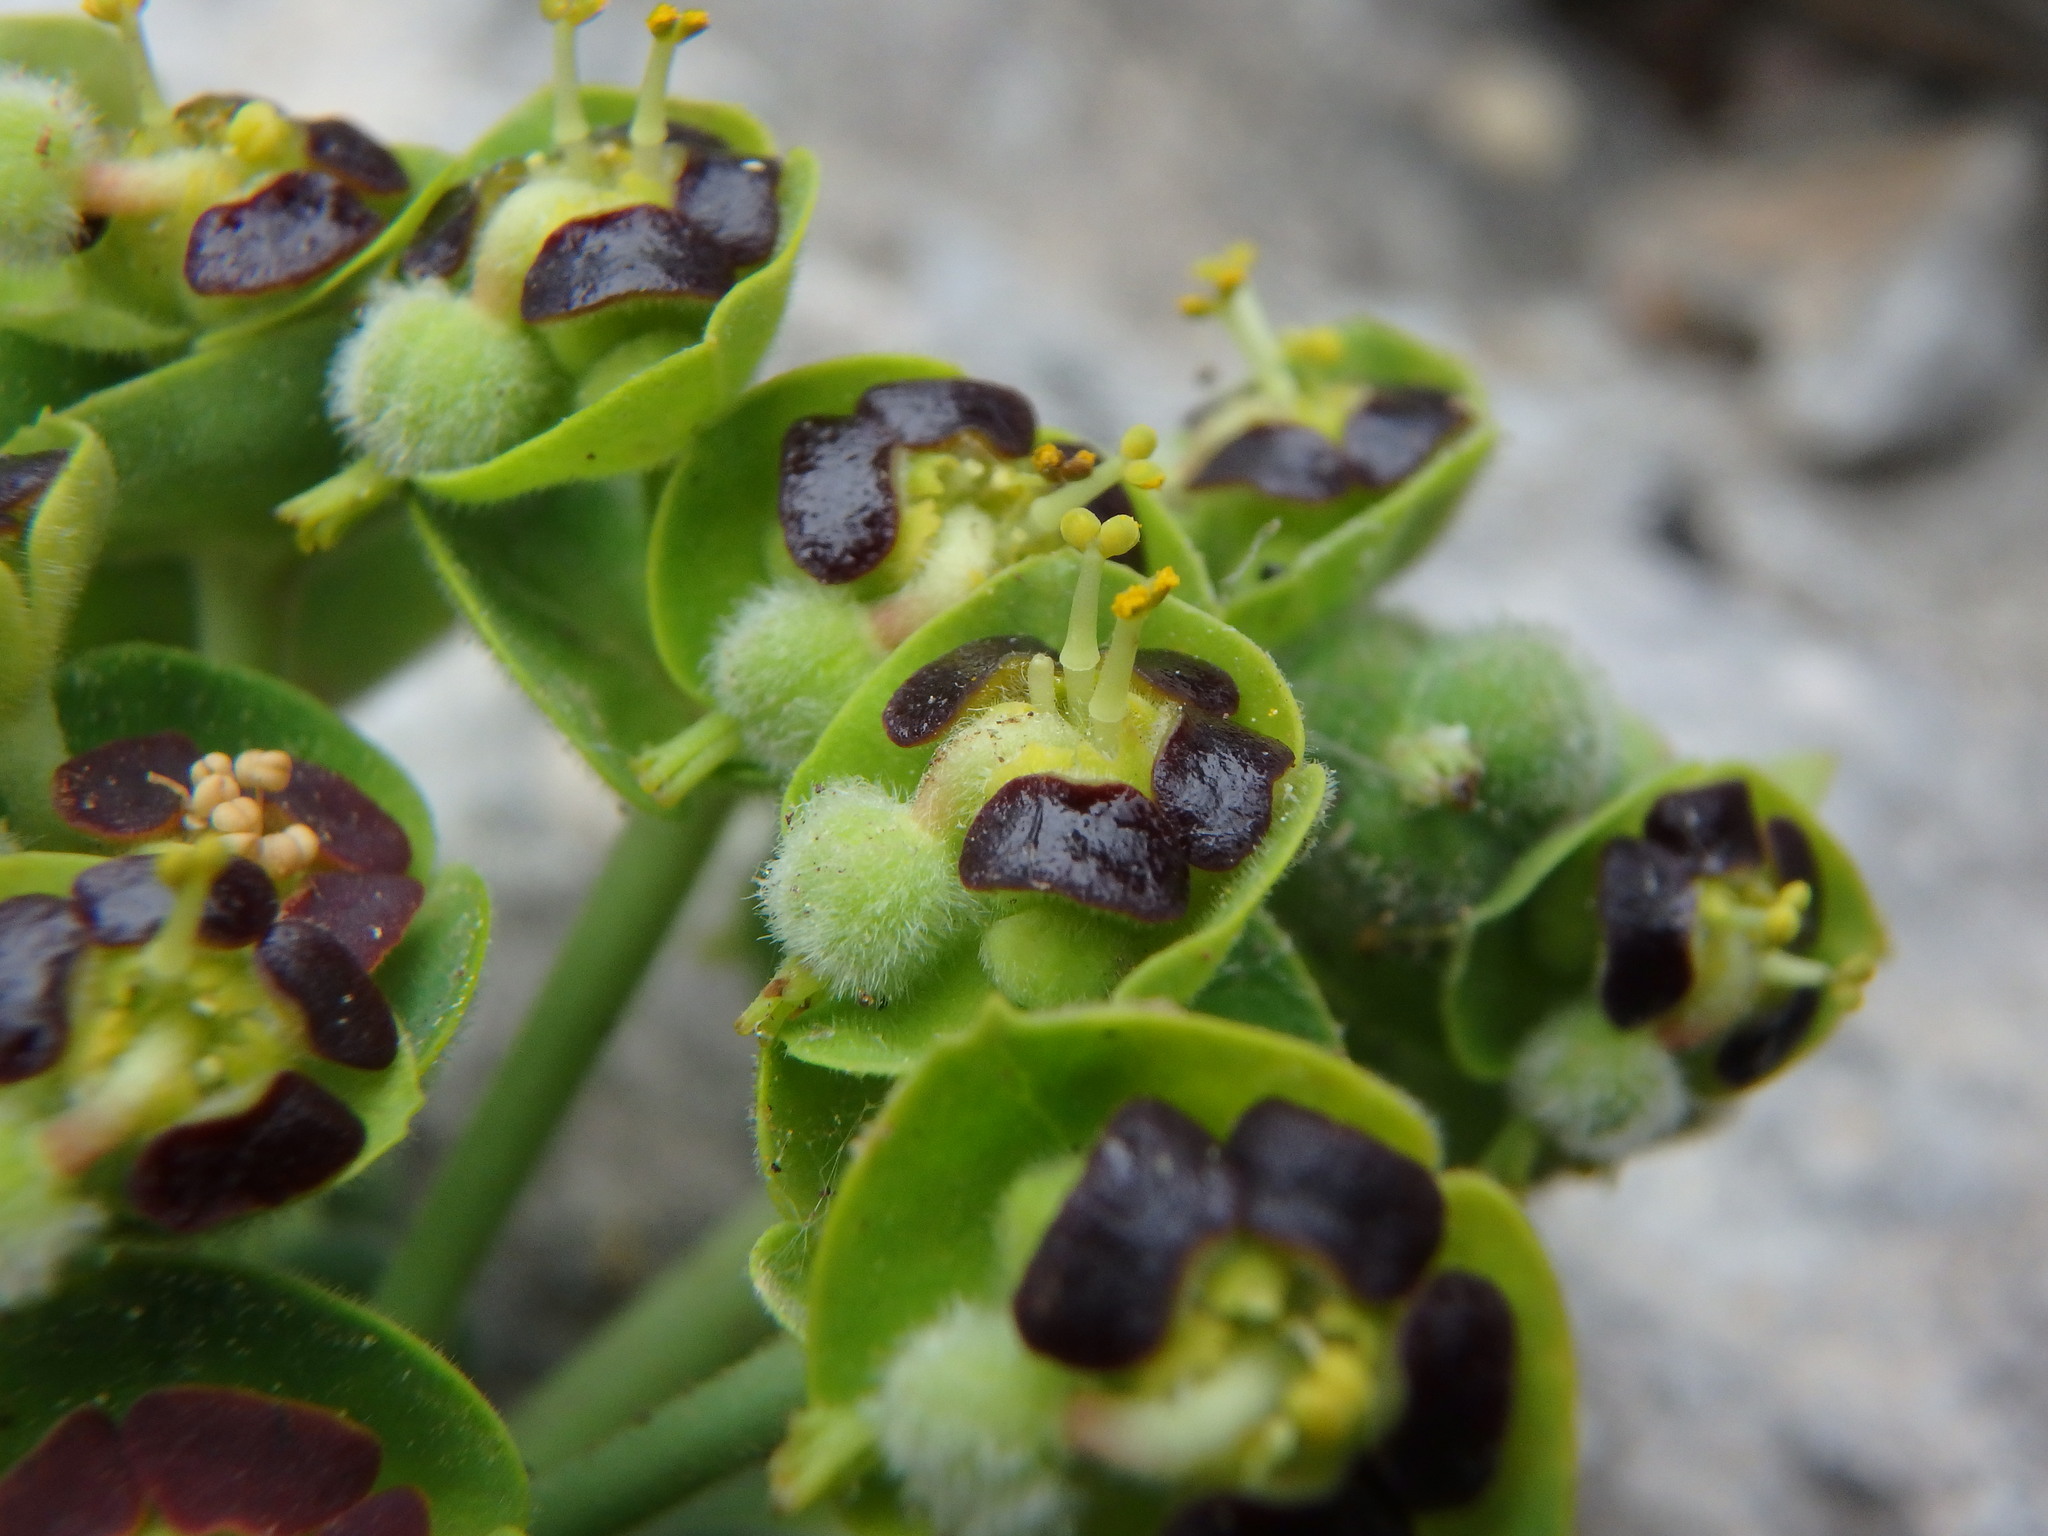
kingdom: Plantae
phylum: Tracheophyta
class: Magnoliopsida
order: Malpighiales
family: Euphorbiaceae
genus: Euphorbia
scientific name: Euphorbia characias
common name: Mediterranean spurge
